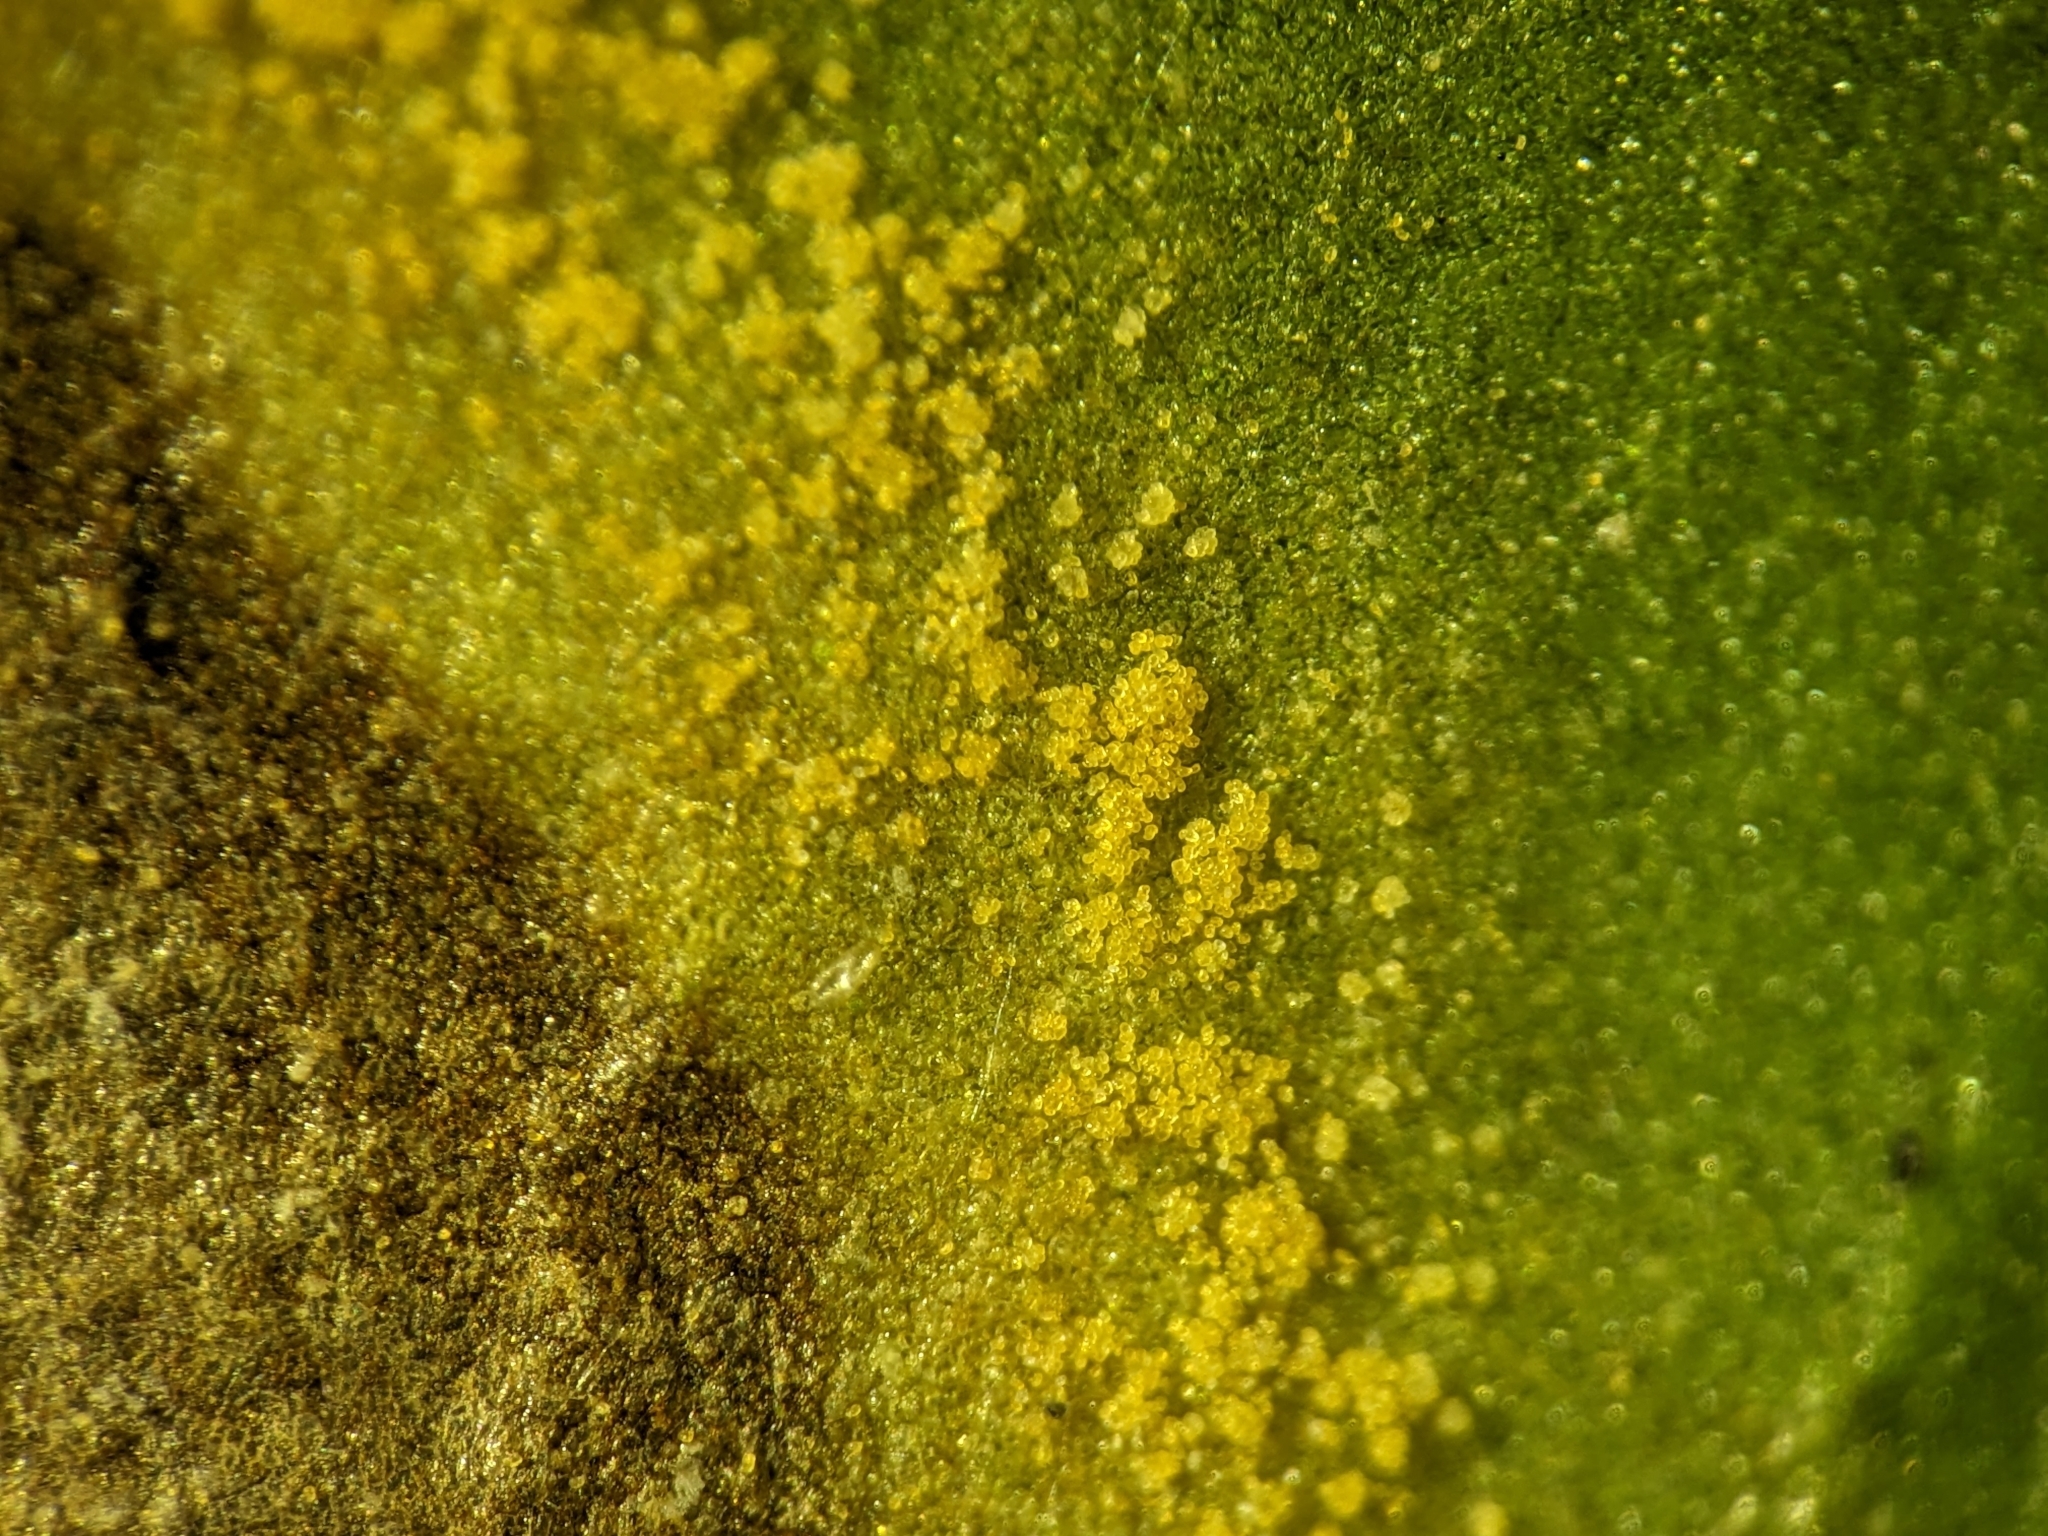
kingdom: Fungi
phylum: Basidiomycota
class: Pucciniomycetes
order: Pucciniales
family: Zaghouaniaceae
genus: Hemileia
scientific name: Hemileia vastatrix
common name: Leaf rust of coffee
